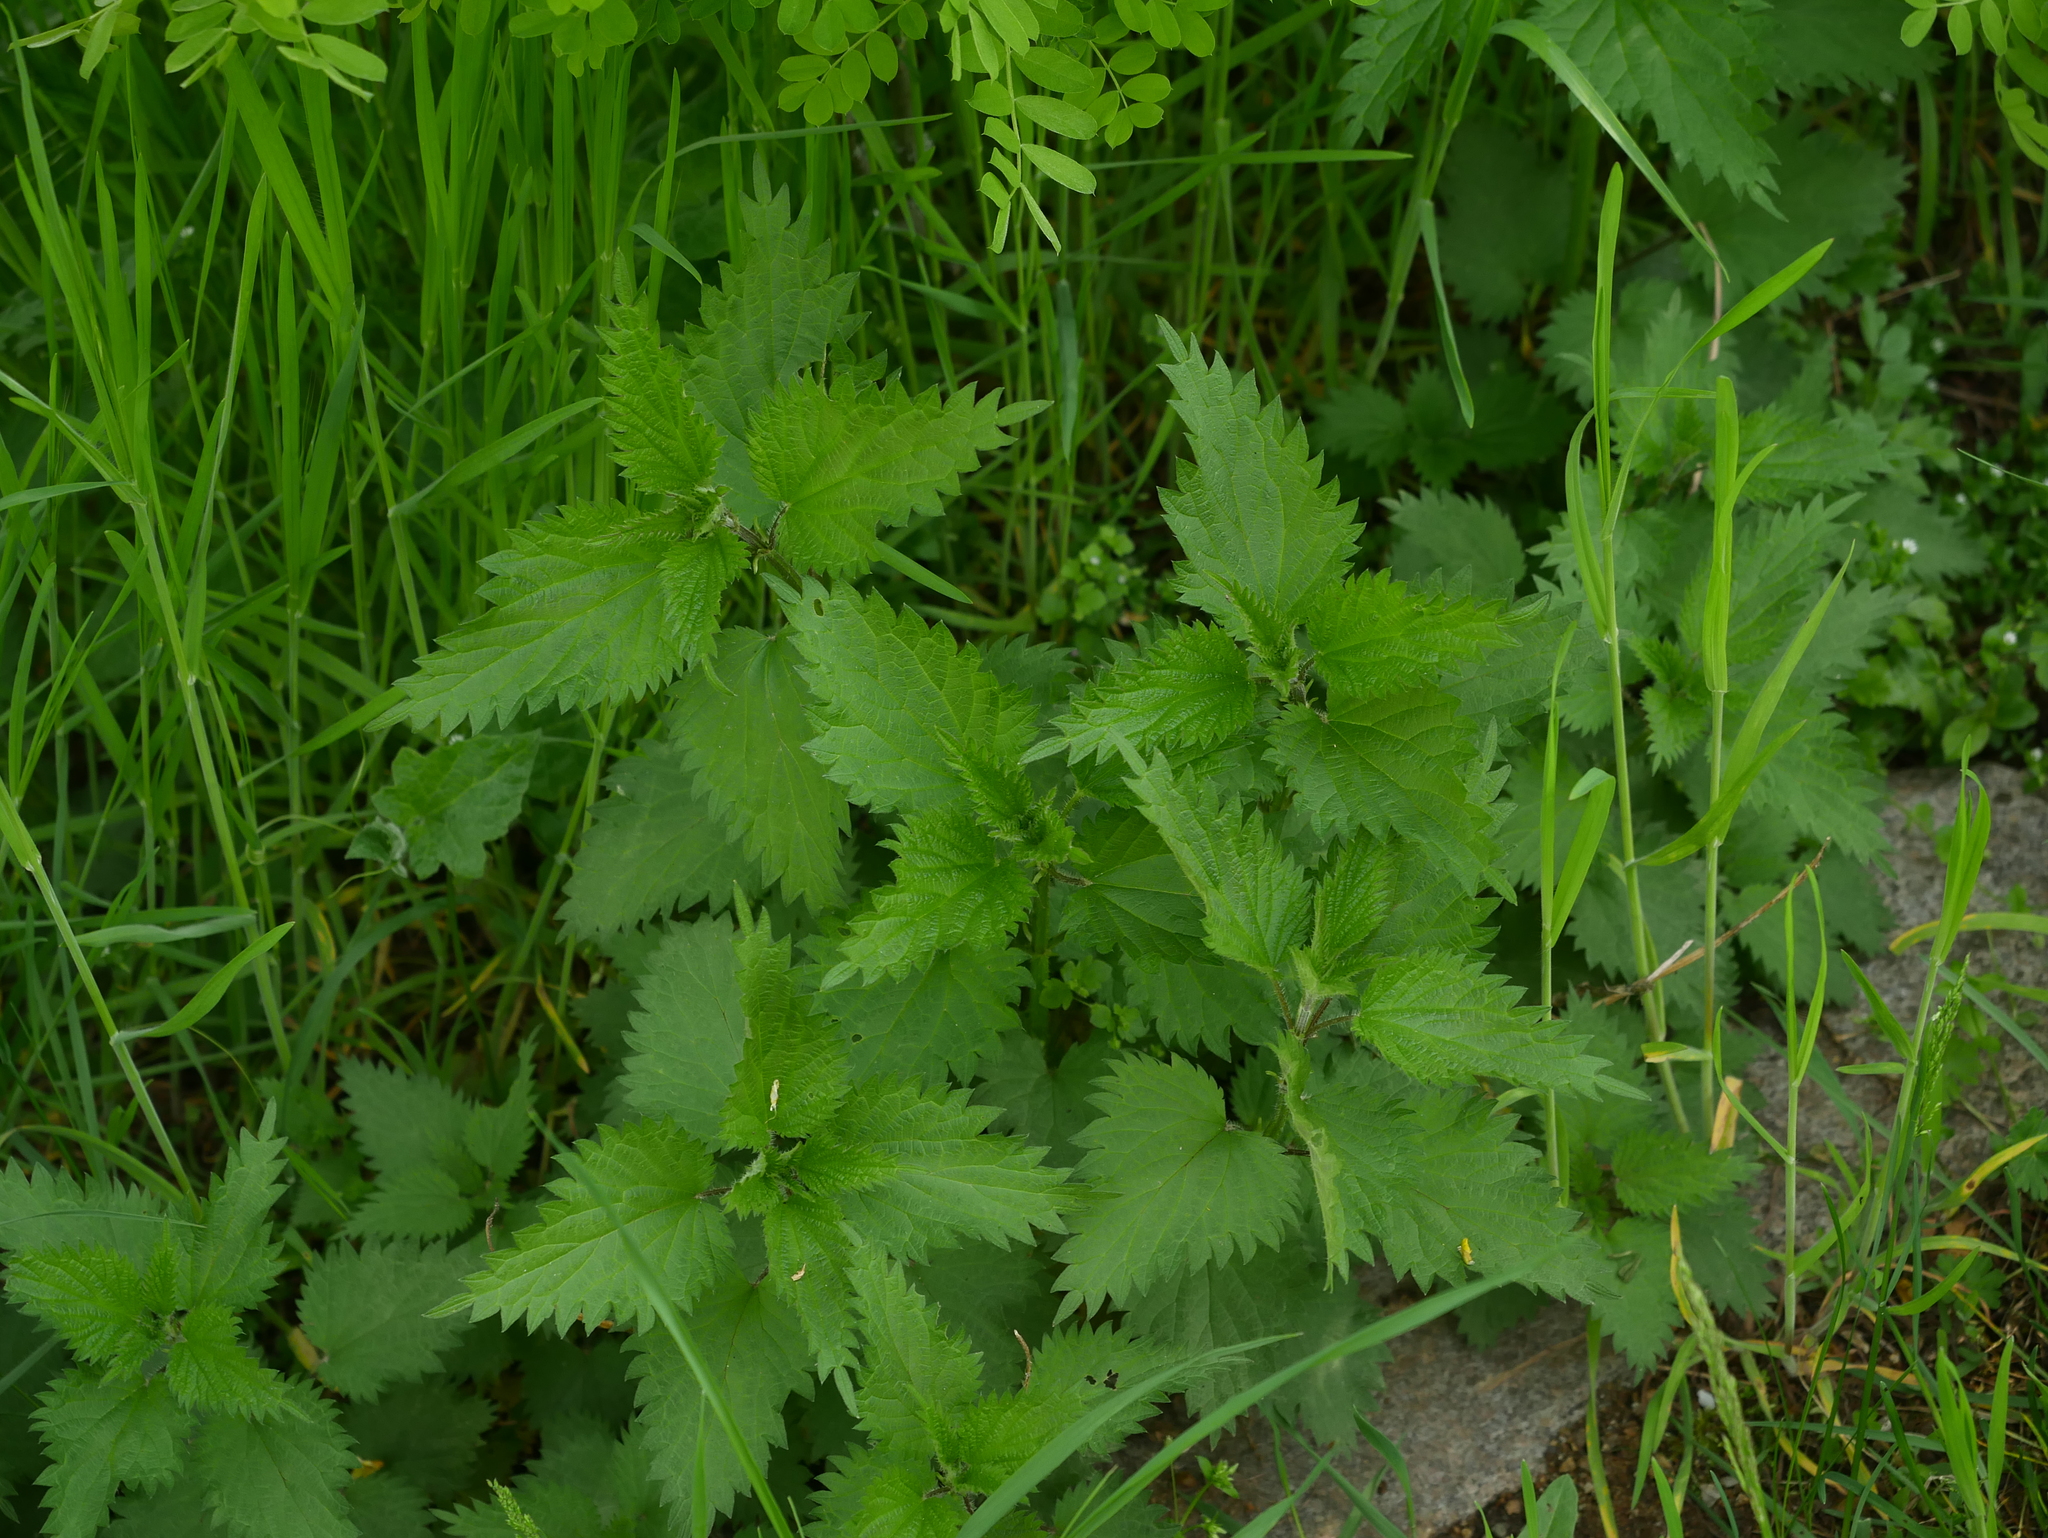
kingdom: Plantae
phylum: Tracheophyta
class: Magnoliopsida
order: Rosales
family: Urticaceae
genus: Urtica
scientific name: Urtica dioica
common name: Common nettle
